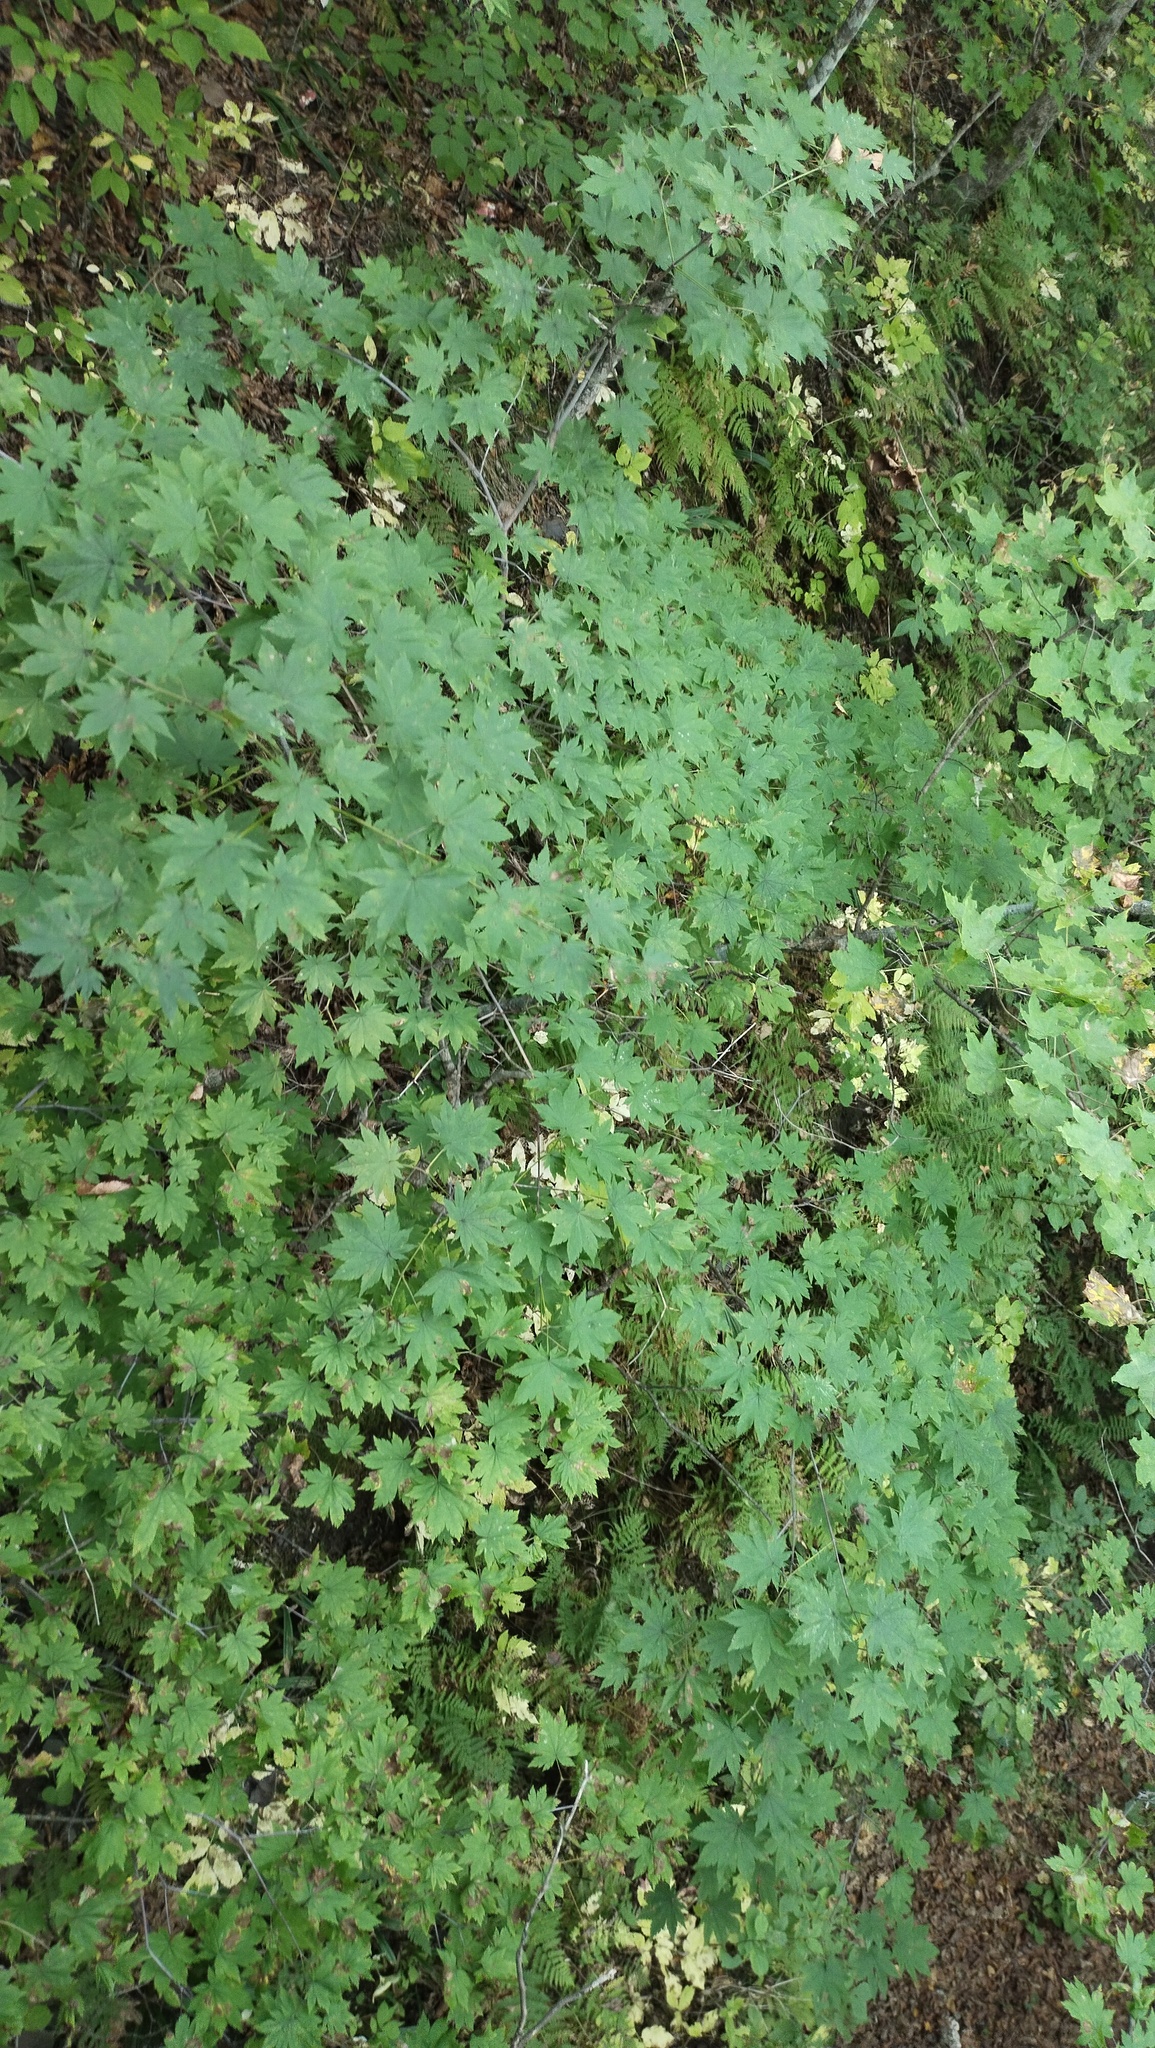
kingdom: Plantae
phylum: Tracheophyta
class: Magnoliopsida
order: Sapindales
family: Sapindaceae
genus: Acer
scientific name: Acer pseudosieboldianum
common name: Korean maple
